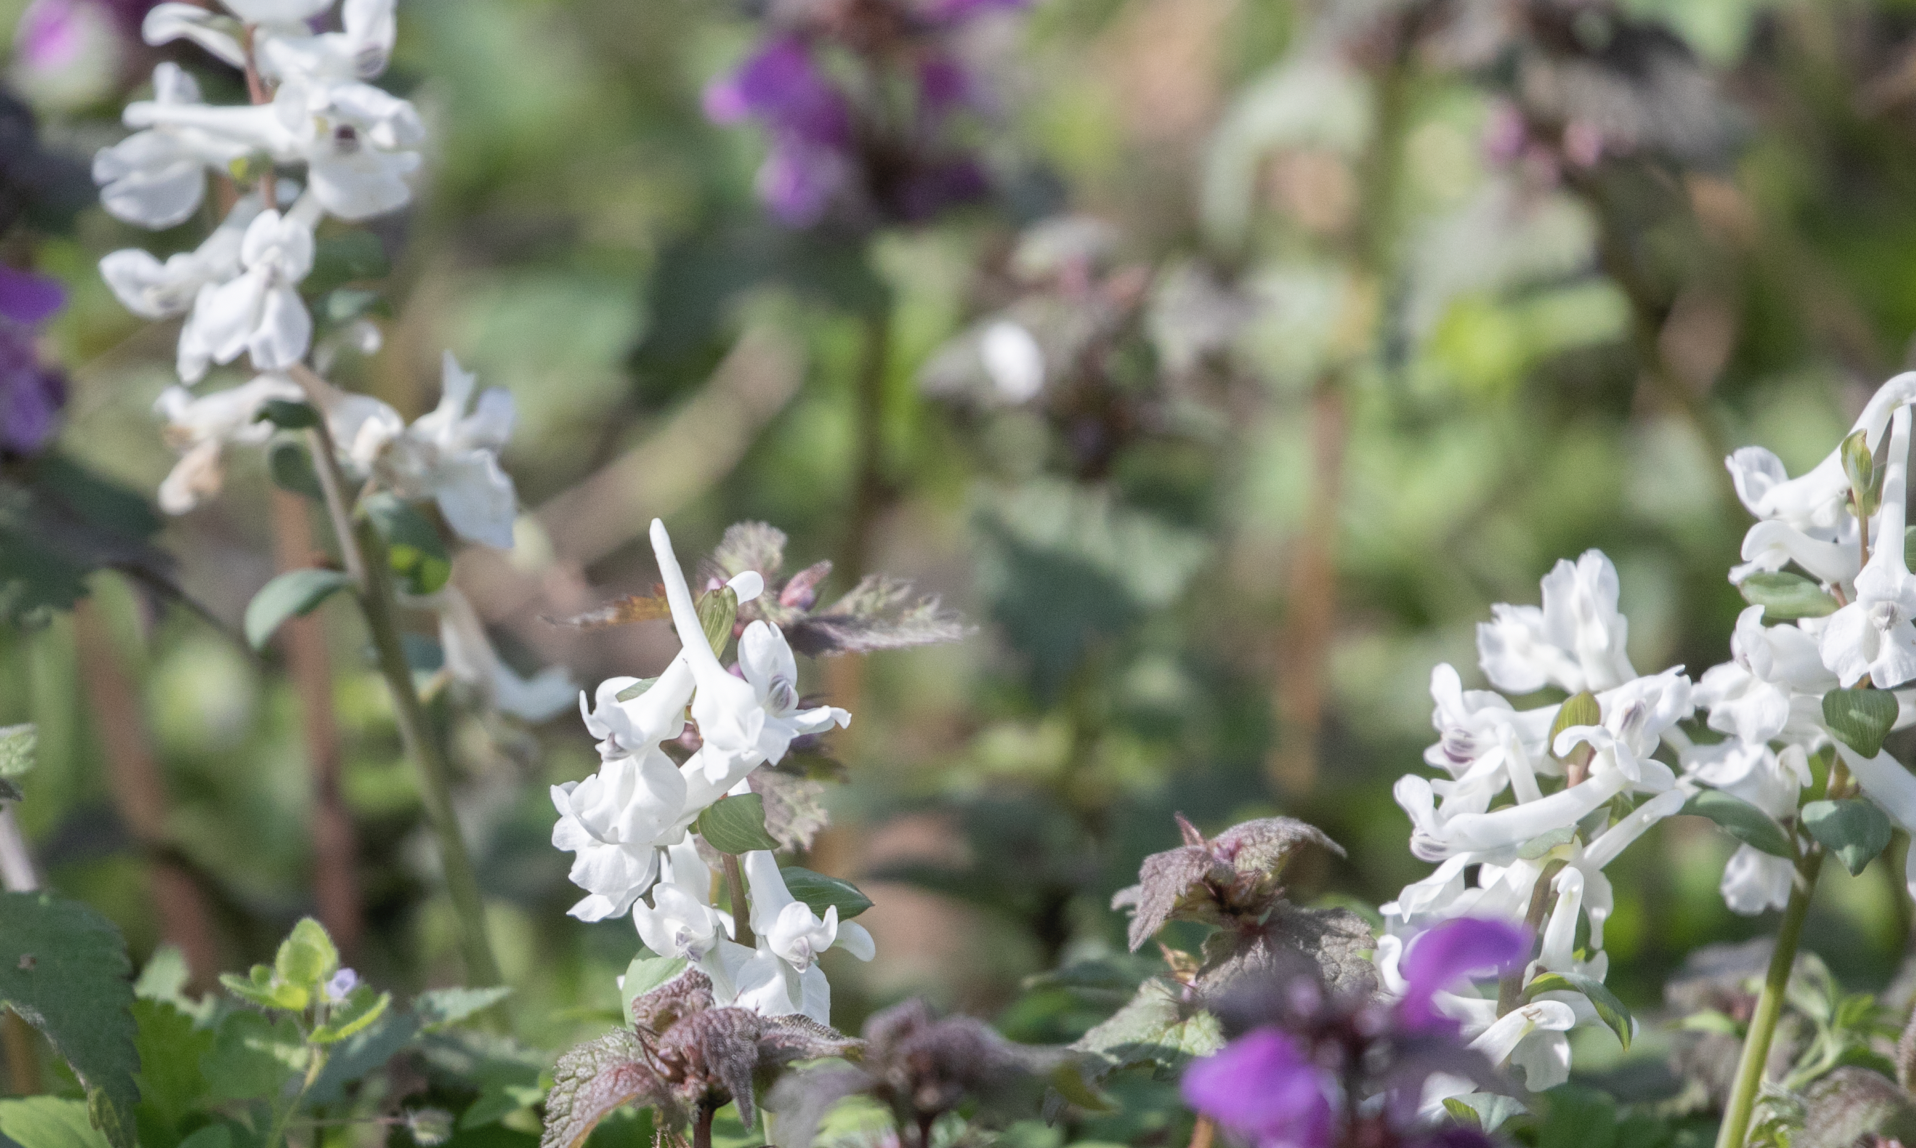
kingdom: Plantae
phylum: Tracheophyta
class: Magnoliopsida
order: Ranunculales
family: Papaveraceae
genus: Corydalis
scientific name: Corydalis cava
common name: Hollowroot
